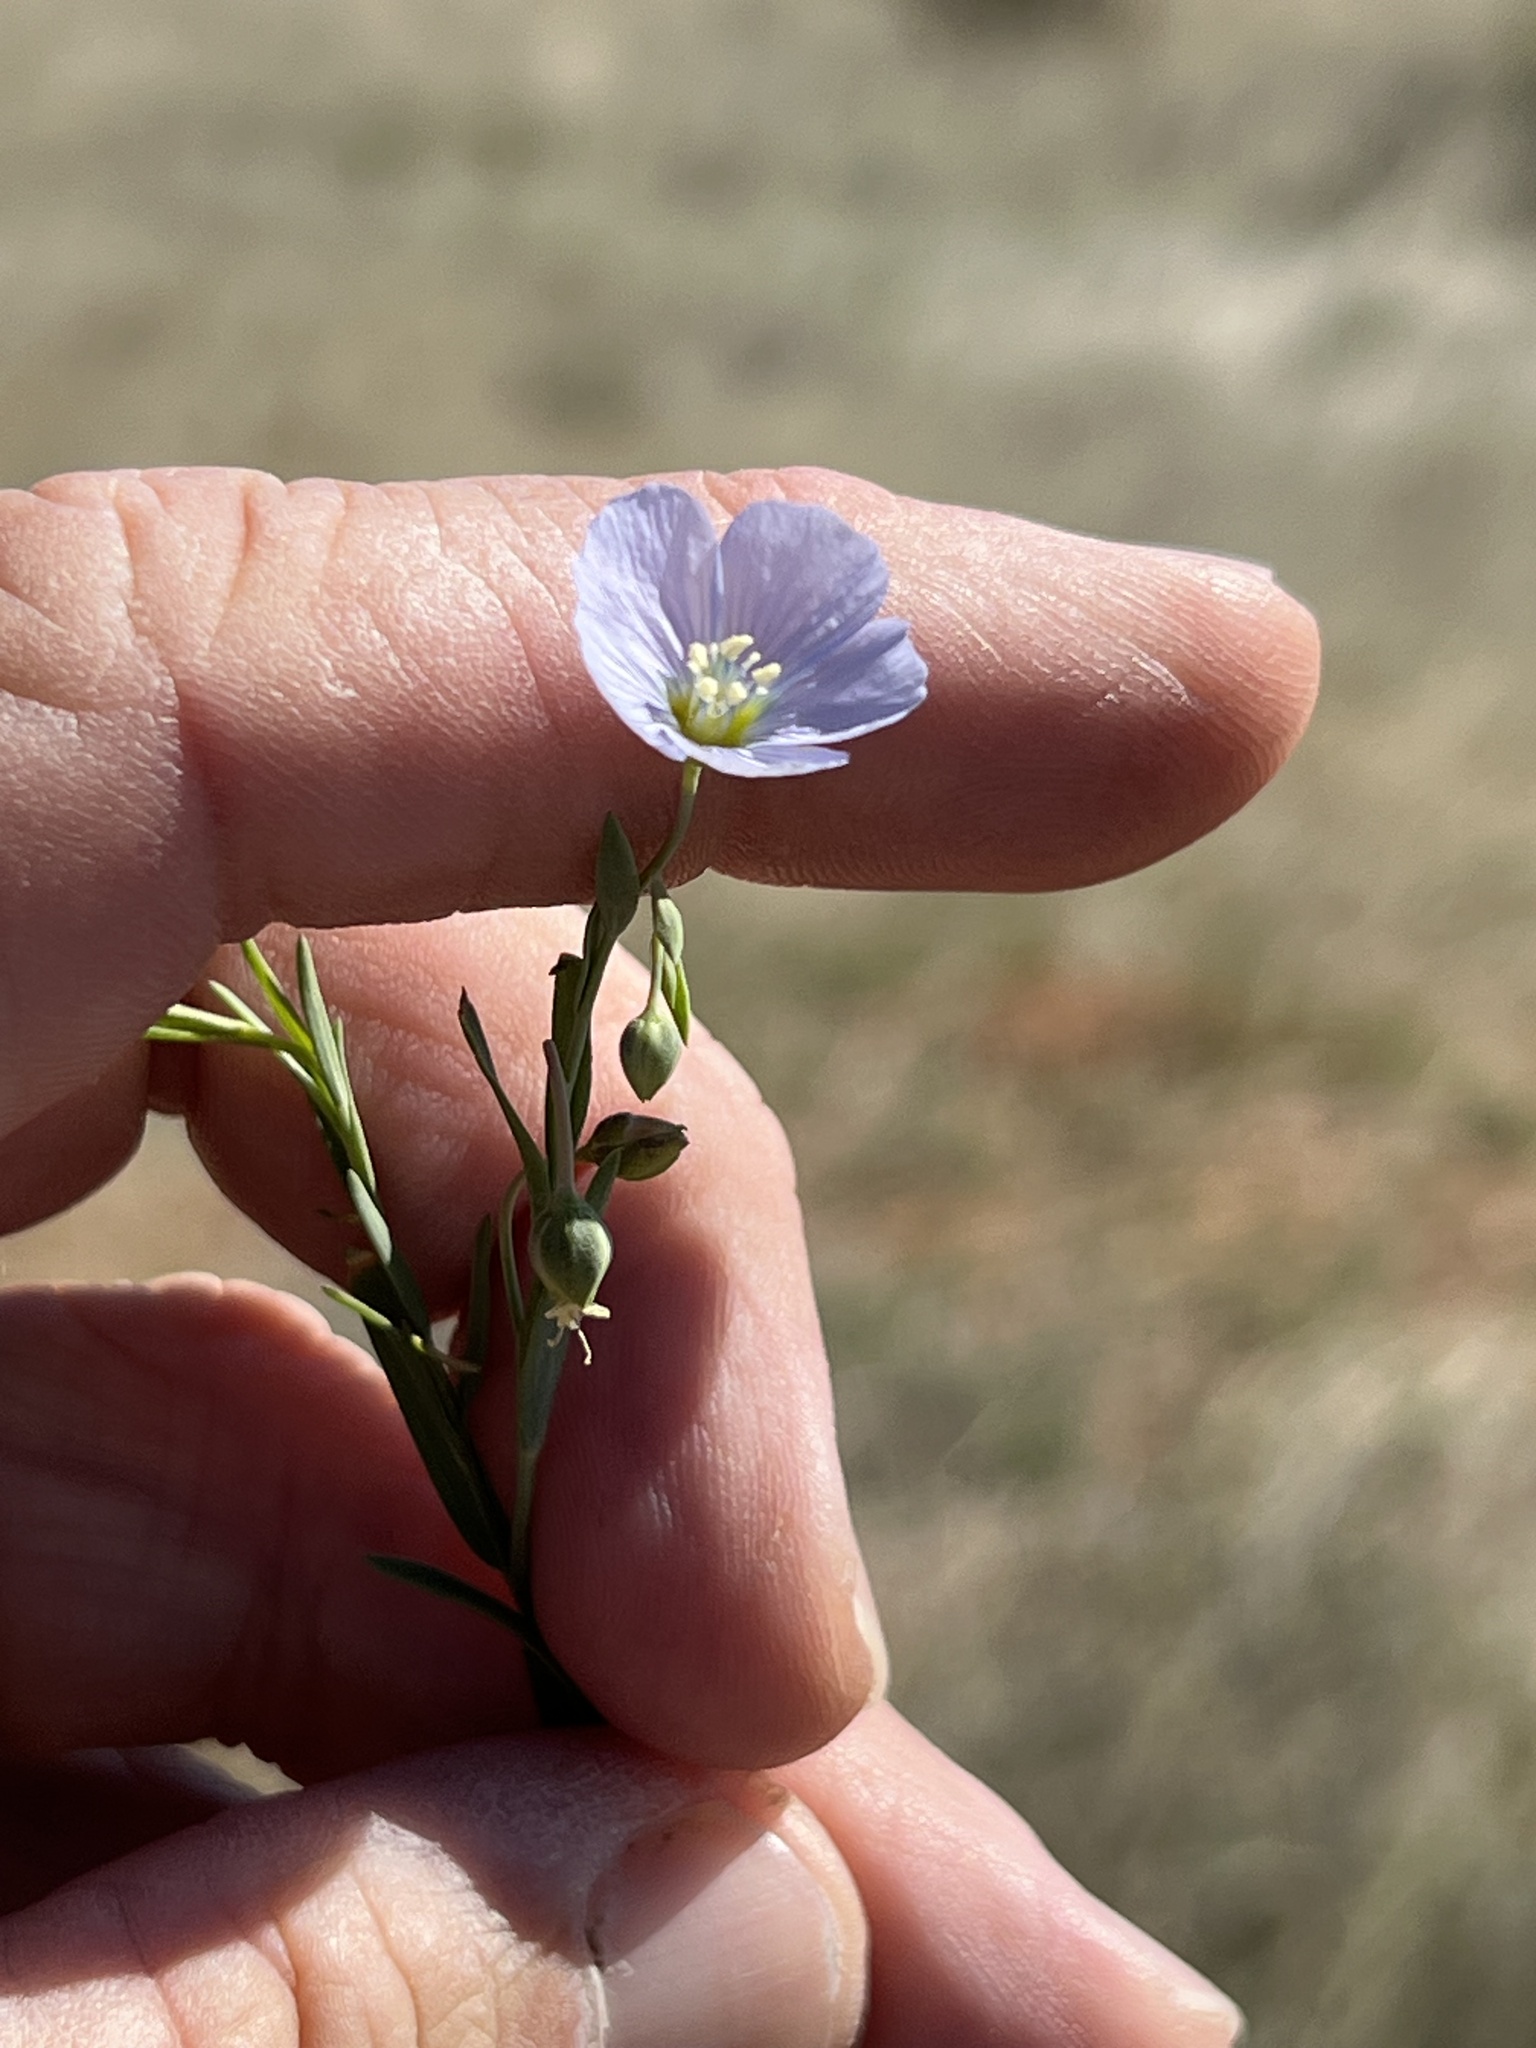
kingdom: Plantae
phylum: Tracheophyta
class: Magnoliopsida
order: Malpighiales
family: Linaceae
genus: Linum
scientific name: Linum pratense
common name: Norton's flax
